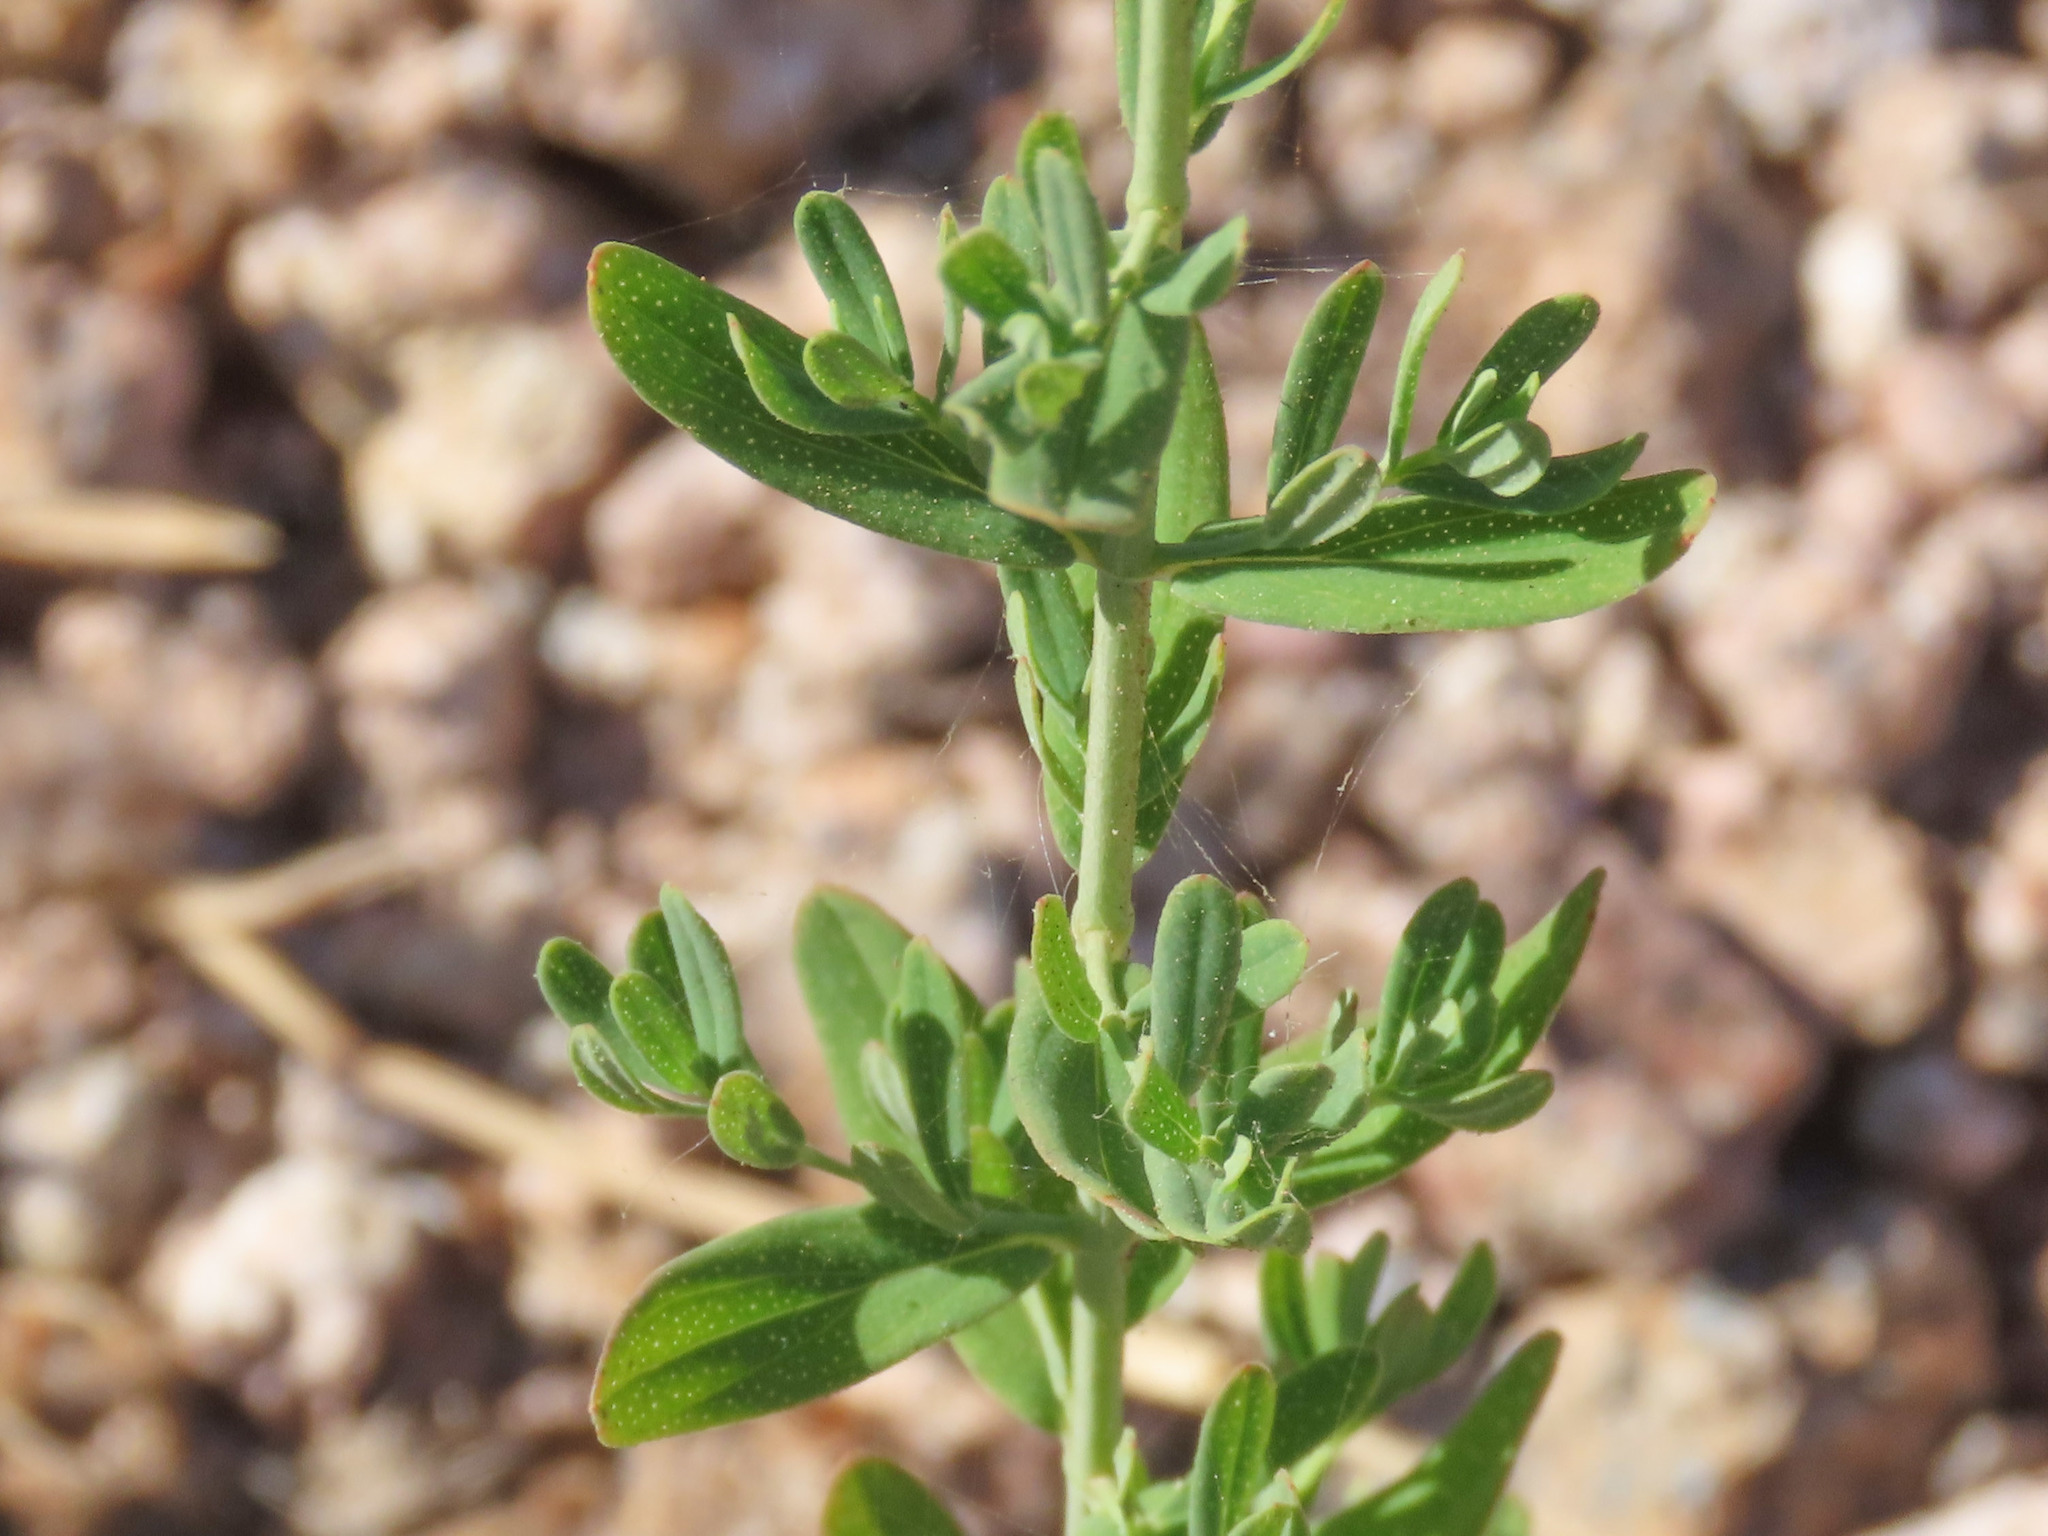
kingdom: Plantae
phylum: Tracheophyta
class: Magnoliopsida
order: Malpighiales
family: Hypericaceae
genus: Hypericum
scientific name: Hypericum perforatum
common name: Common st. johnswort
